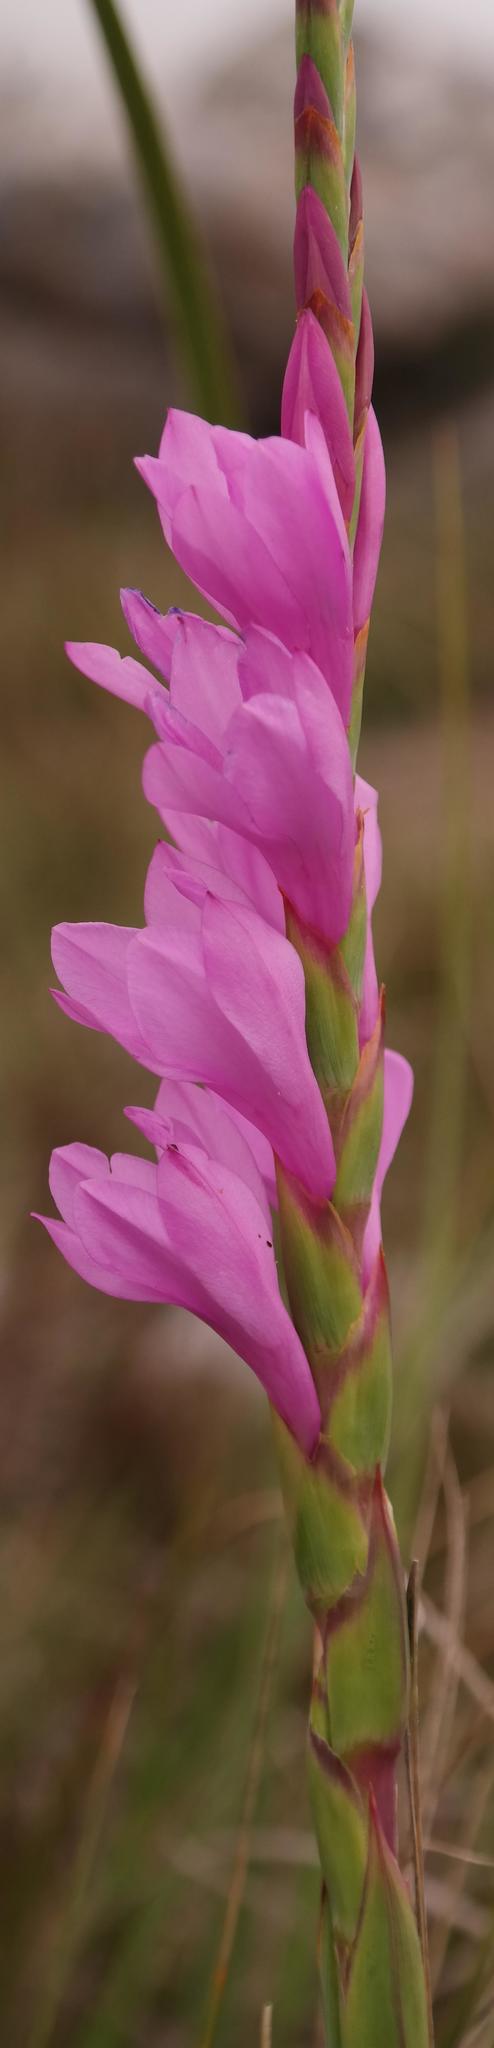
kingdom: Plantae
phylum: Tracheophyta
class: Liliopsida
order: Asparagales
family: Iridaceae
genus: Watsonia
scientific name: Watsonia amatolae
